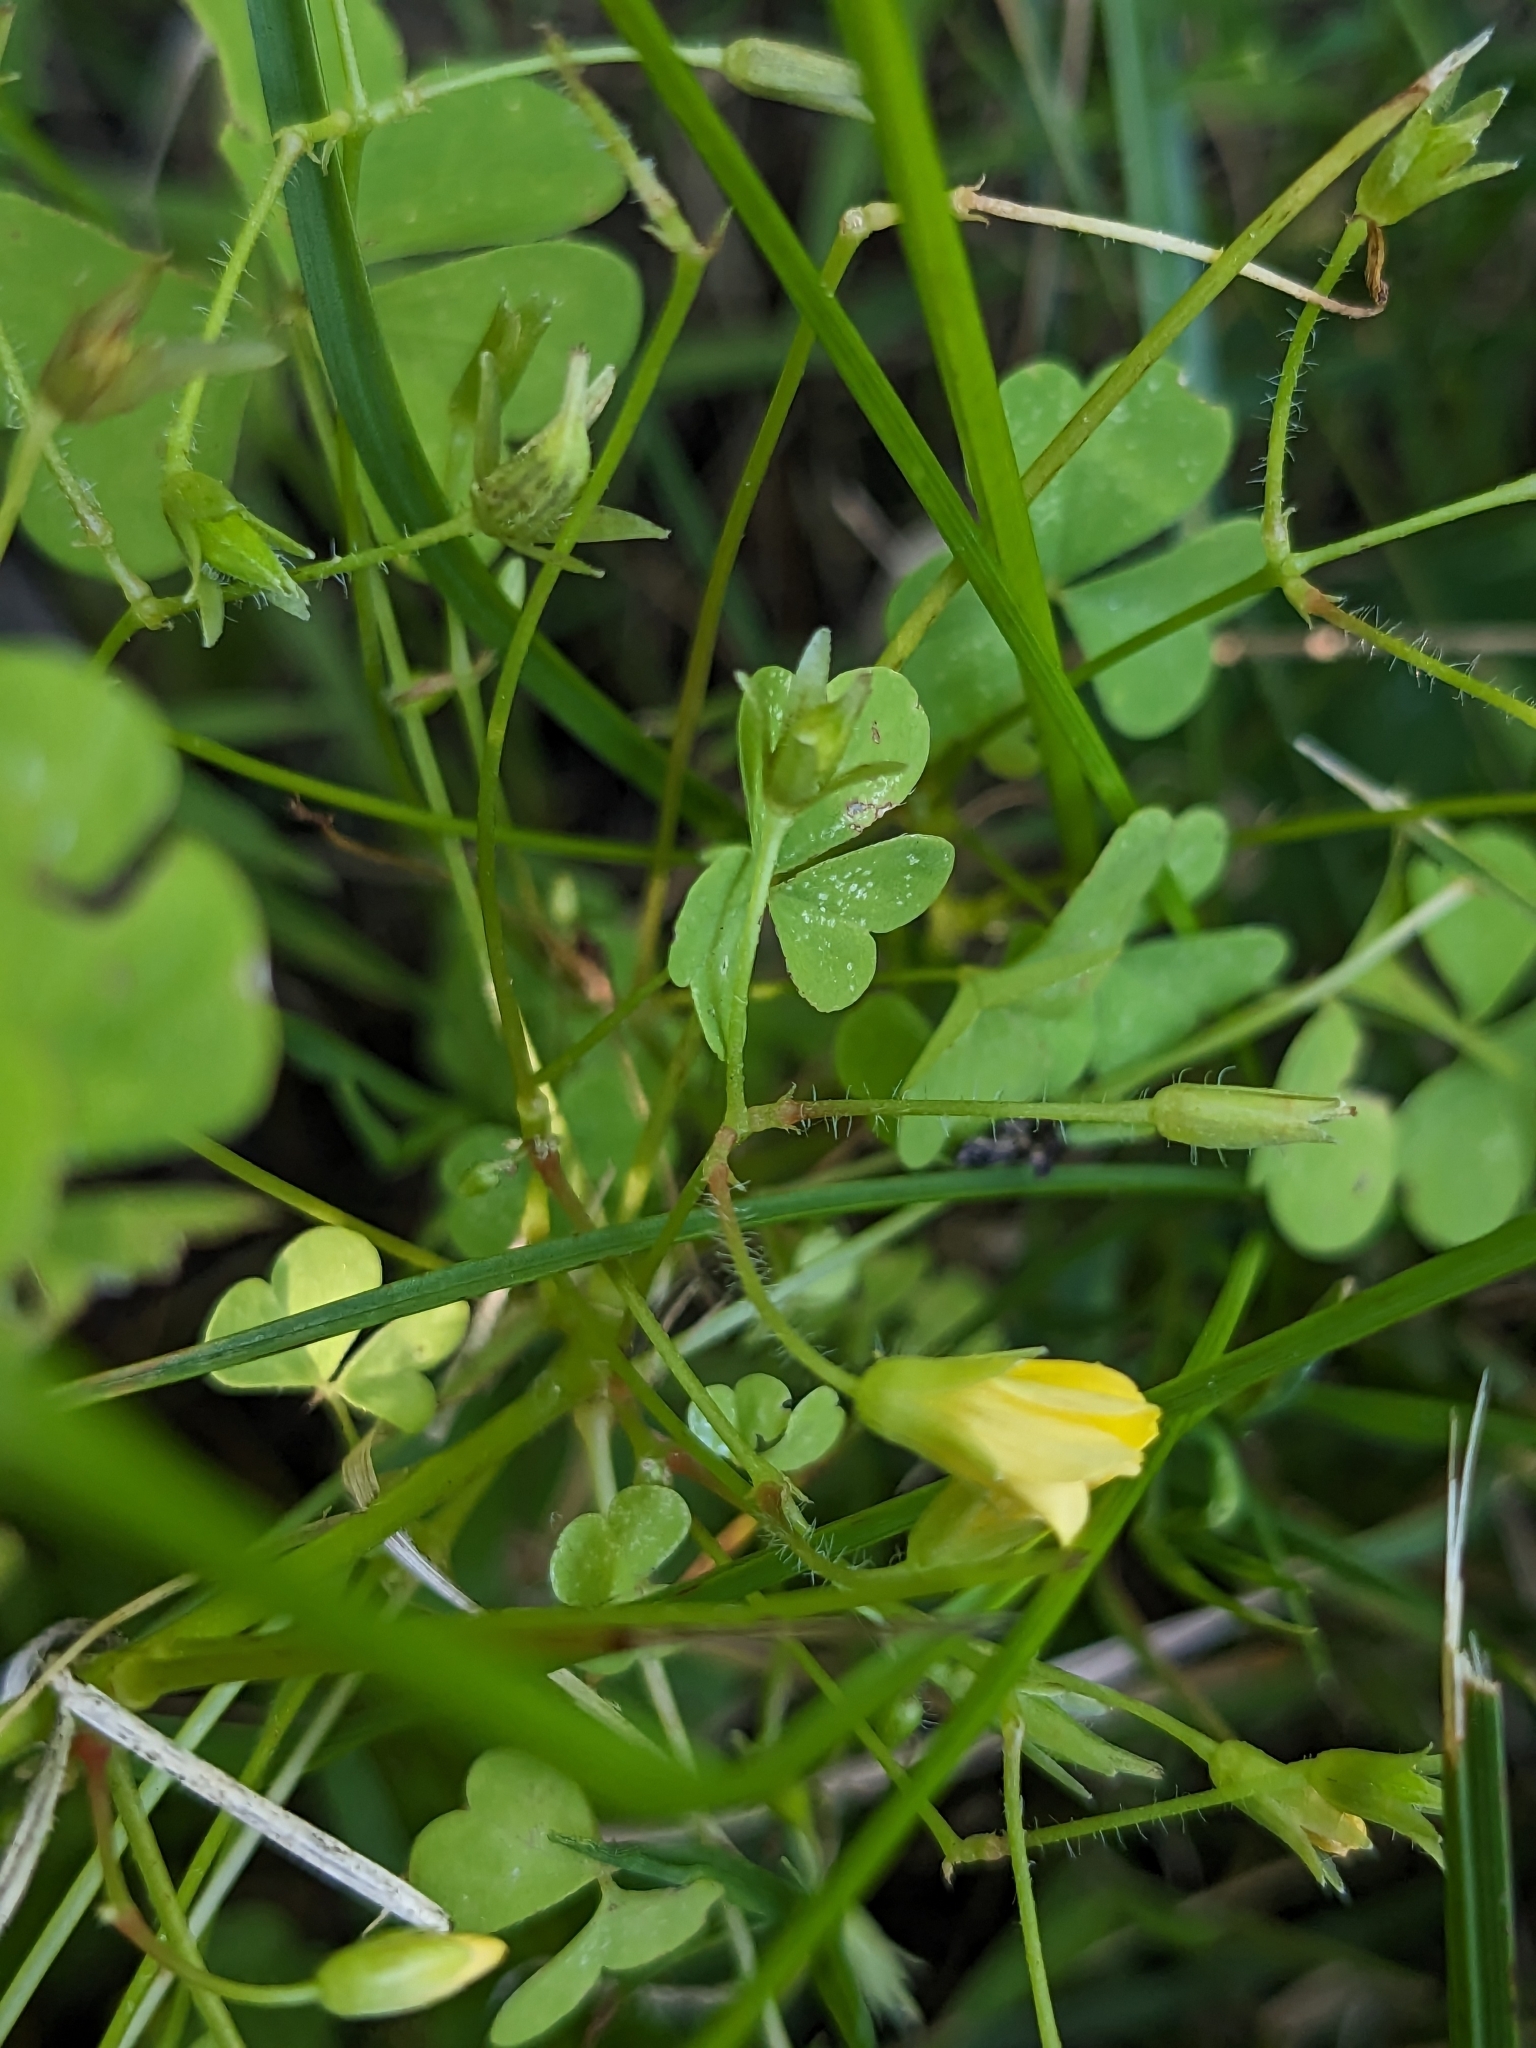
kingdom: Plantae
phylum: Tracheophyta
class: Magnoliopsida
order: Oxalidales
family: Oxalidaceae
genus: Oxalis
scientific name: Oxalis stricta
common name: Upright yellow-sorrel
